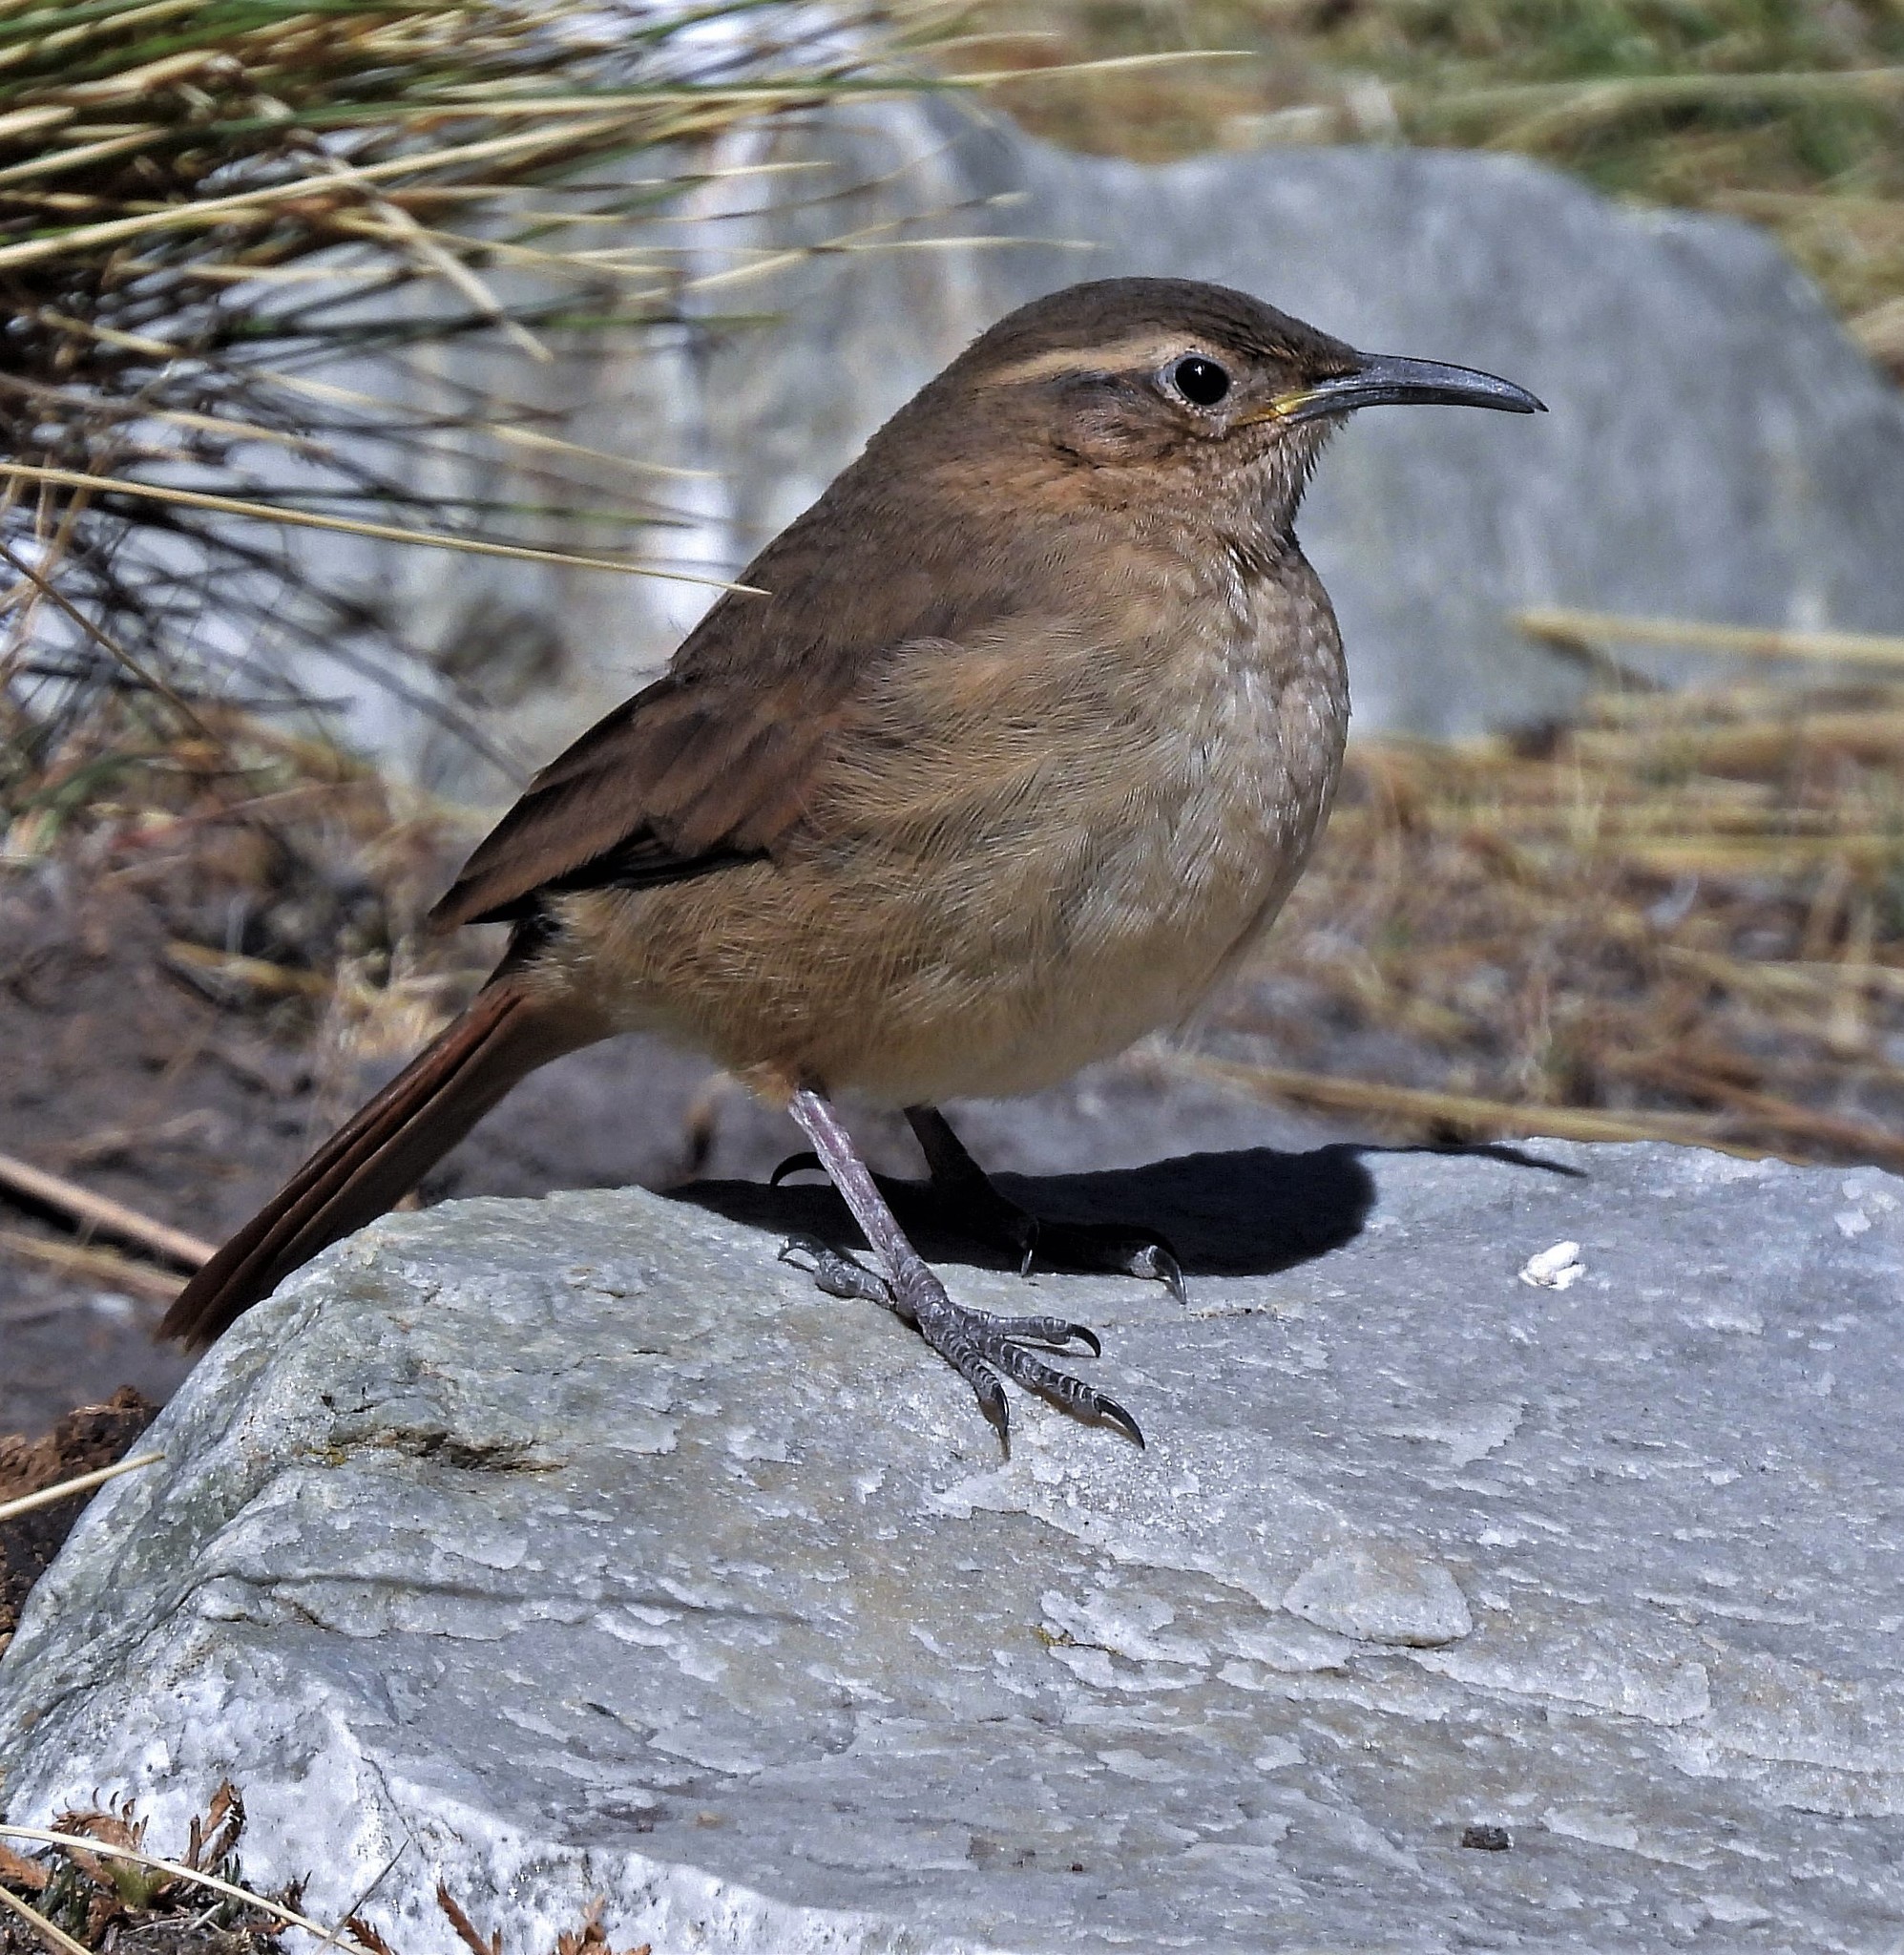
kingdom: Animalia
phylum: Chordata
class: Aves
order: Passeriformes
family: Furnariidae
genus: Upucerthia
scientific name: Upucerthia validirostris
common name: Buff-breasted earthcreeper
